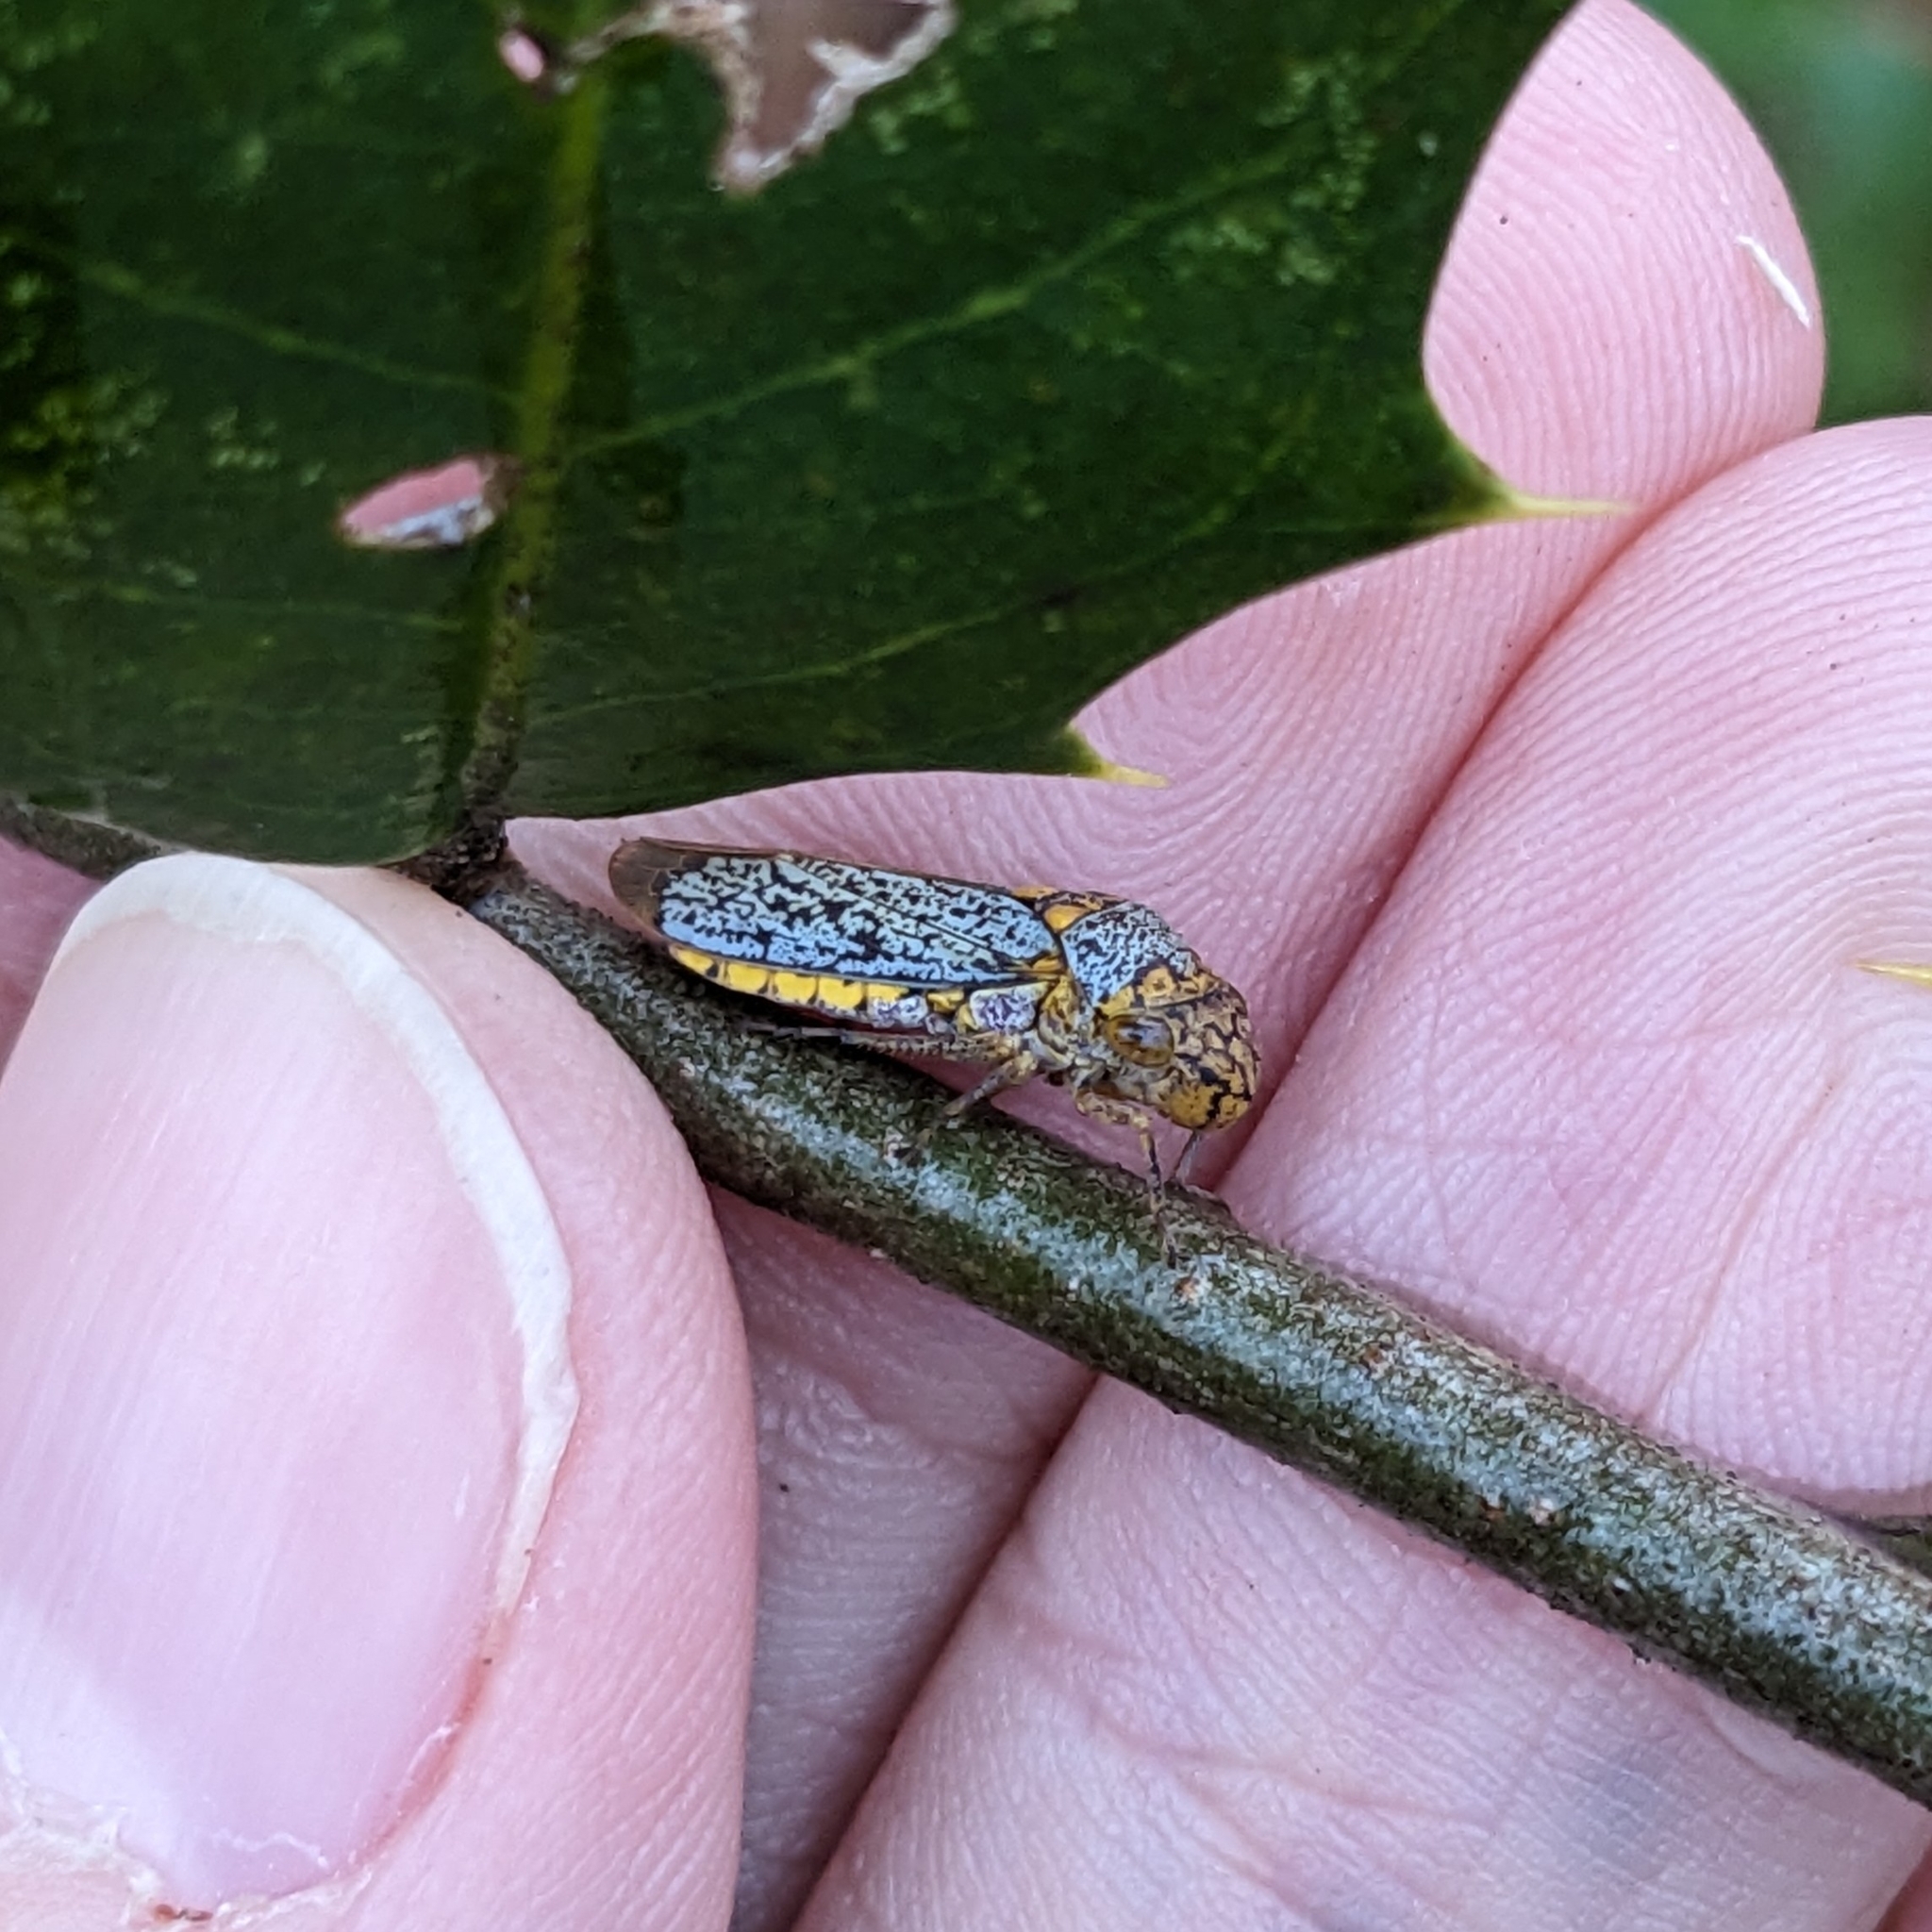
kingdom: Animalia
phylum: Arthropoda
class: Insecta
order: Hemiptera
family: Cicadellidae
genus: Oncometopia
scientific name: Oncometopia orbona
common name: Broad-headed sharpshooter
